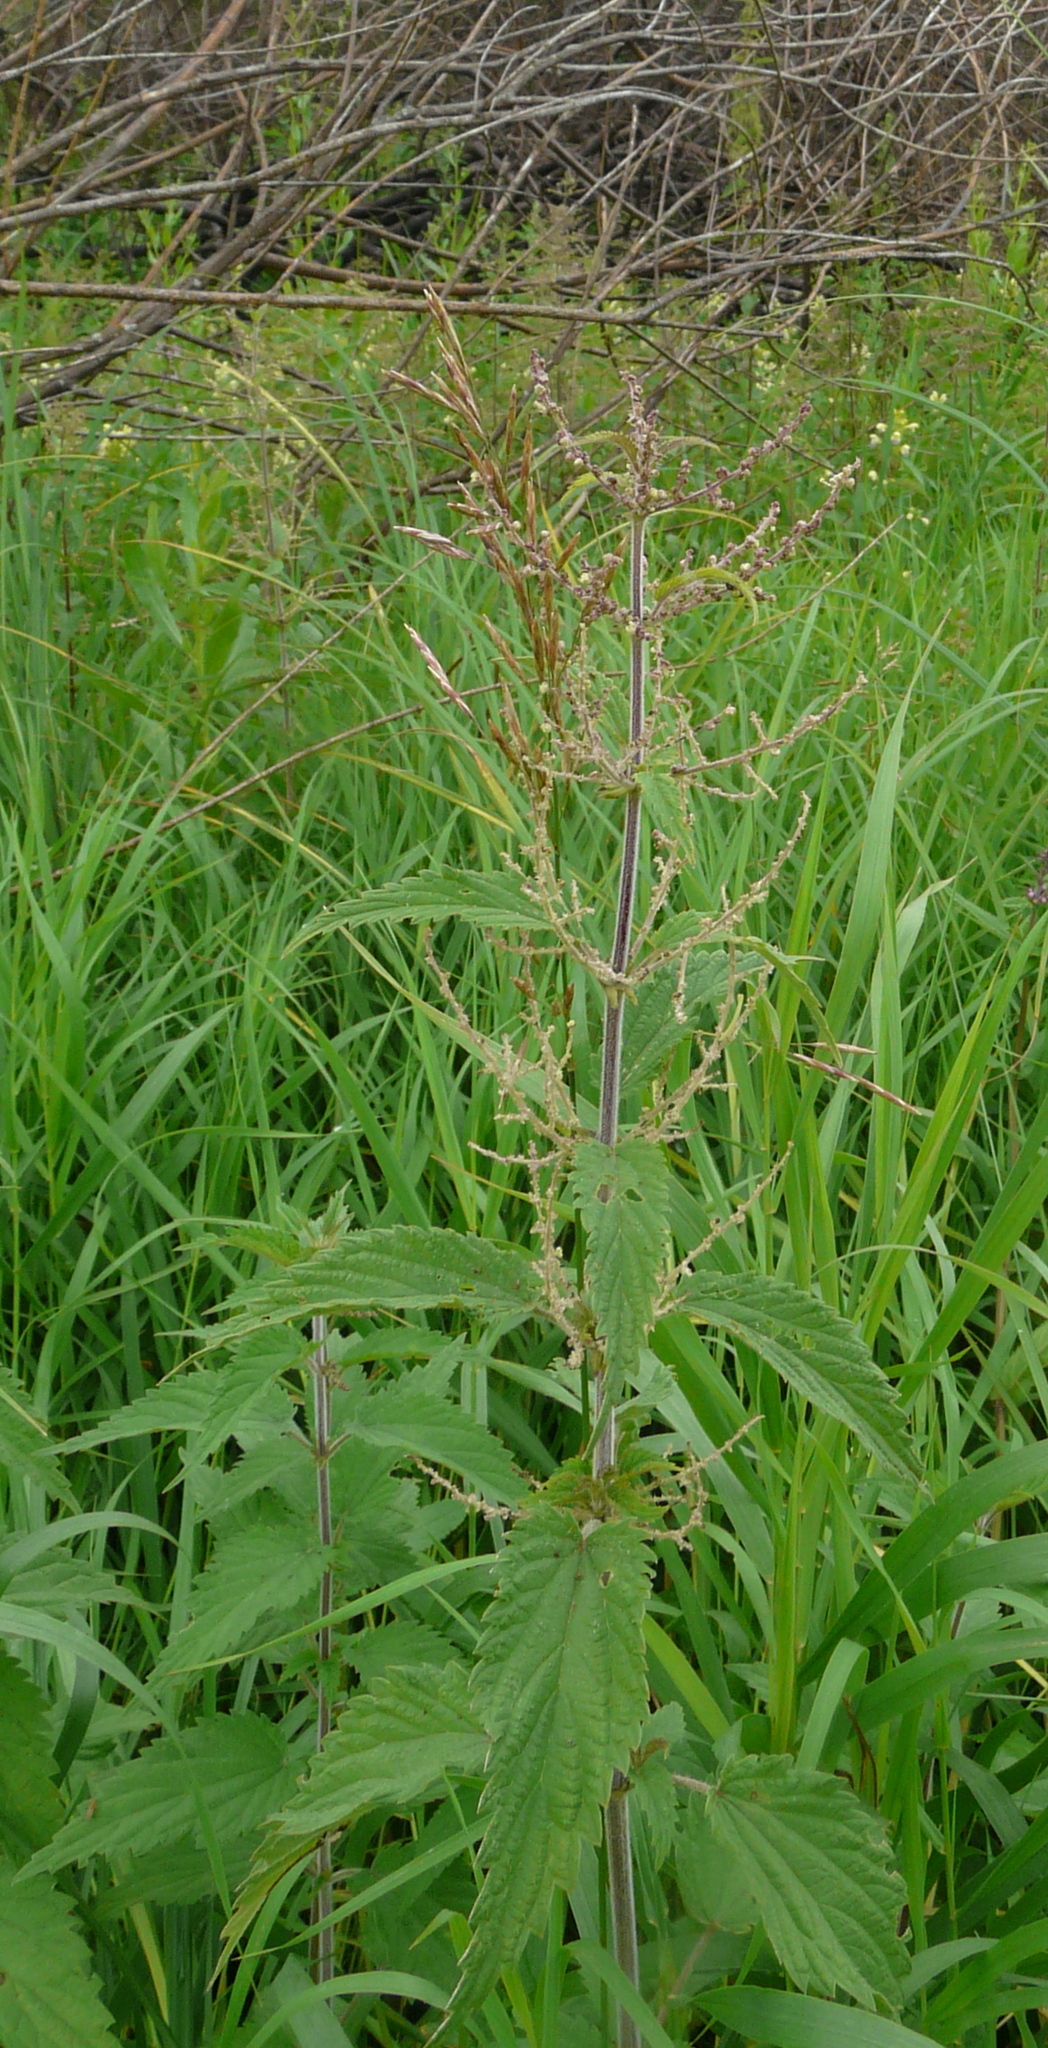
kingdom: Plantae
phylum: Tracheophyta
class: Magnoliopsida
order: Rosales
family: Urticaceae
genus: Urtica
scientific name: Urtica dioica
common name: Common nettle
